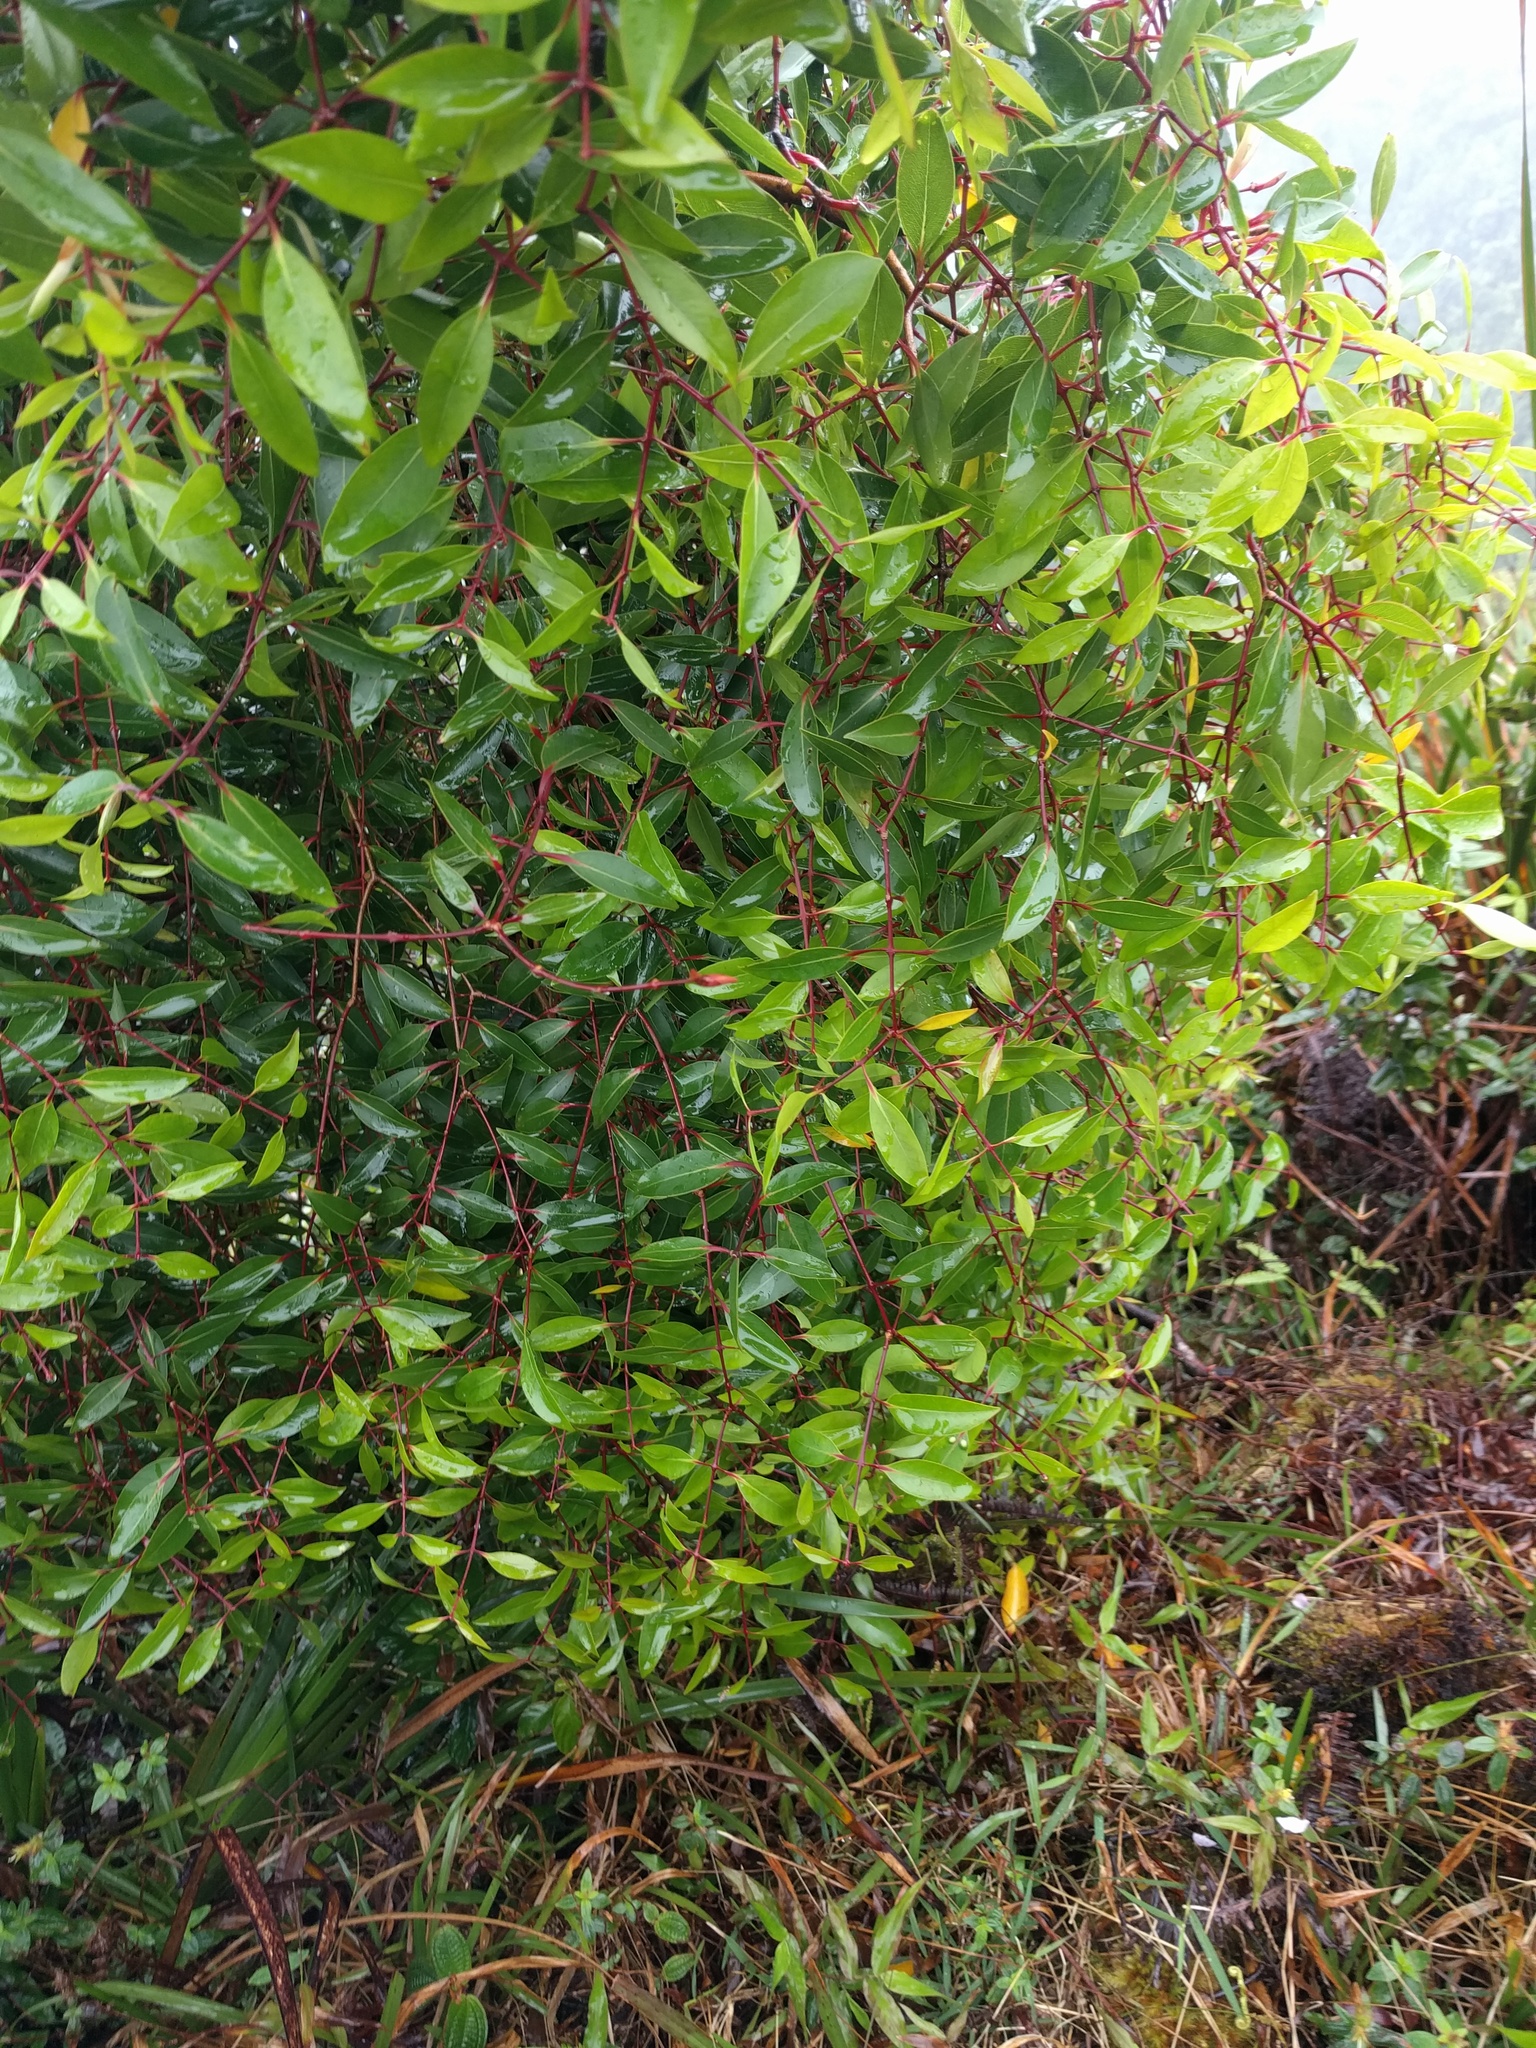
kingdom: Plantae
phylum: Tracheophyta
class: Magnoliopsida
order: Myrtales
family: Myrtaceae
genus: Metrosideros
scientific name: Metrosideros tremuloides
